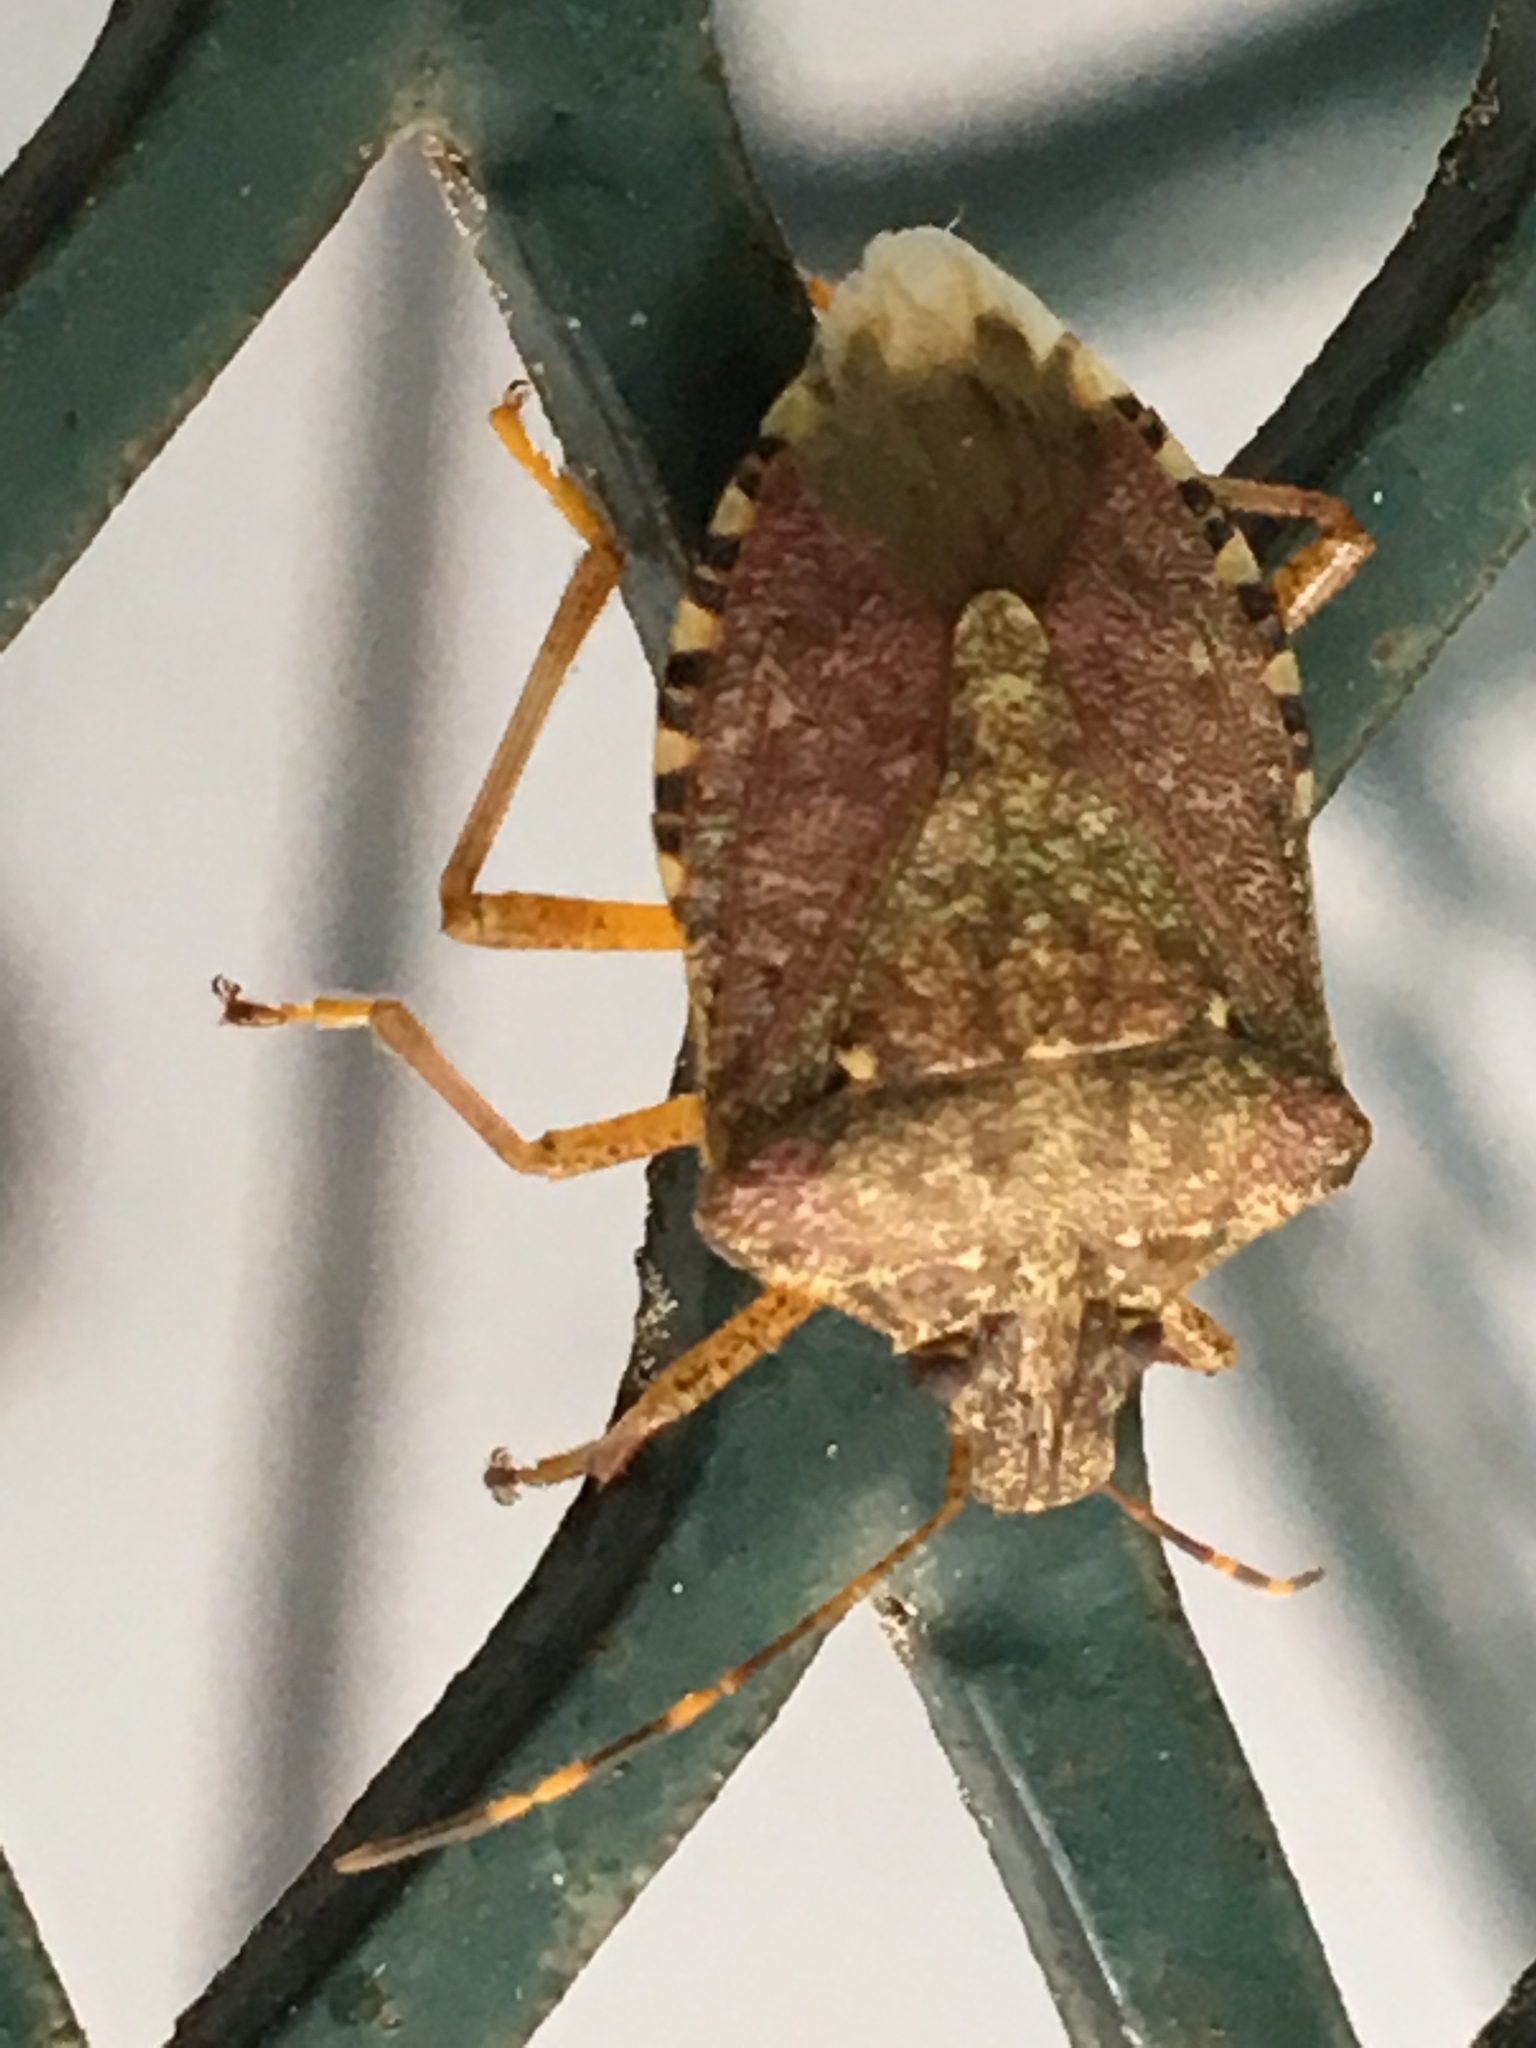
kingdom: Animalia
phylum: Arthropoda
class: Insecta
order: Hemiptera
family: Pentatomidae
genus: Halyomorpha
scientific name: Halyomorpha halys
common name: Brown marmorated stink bug
